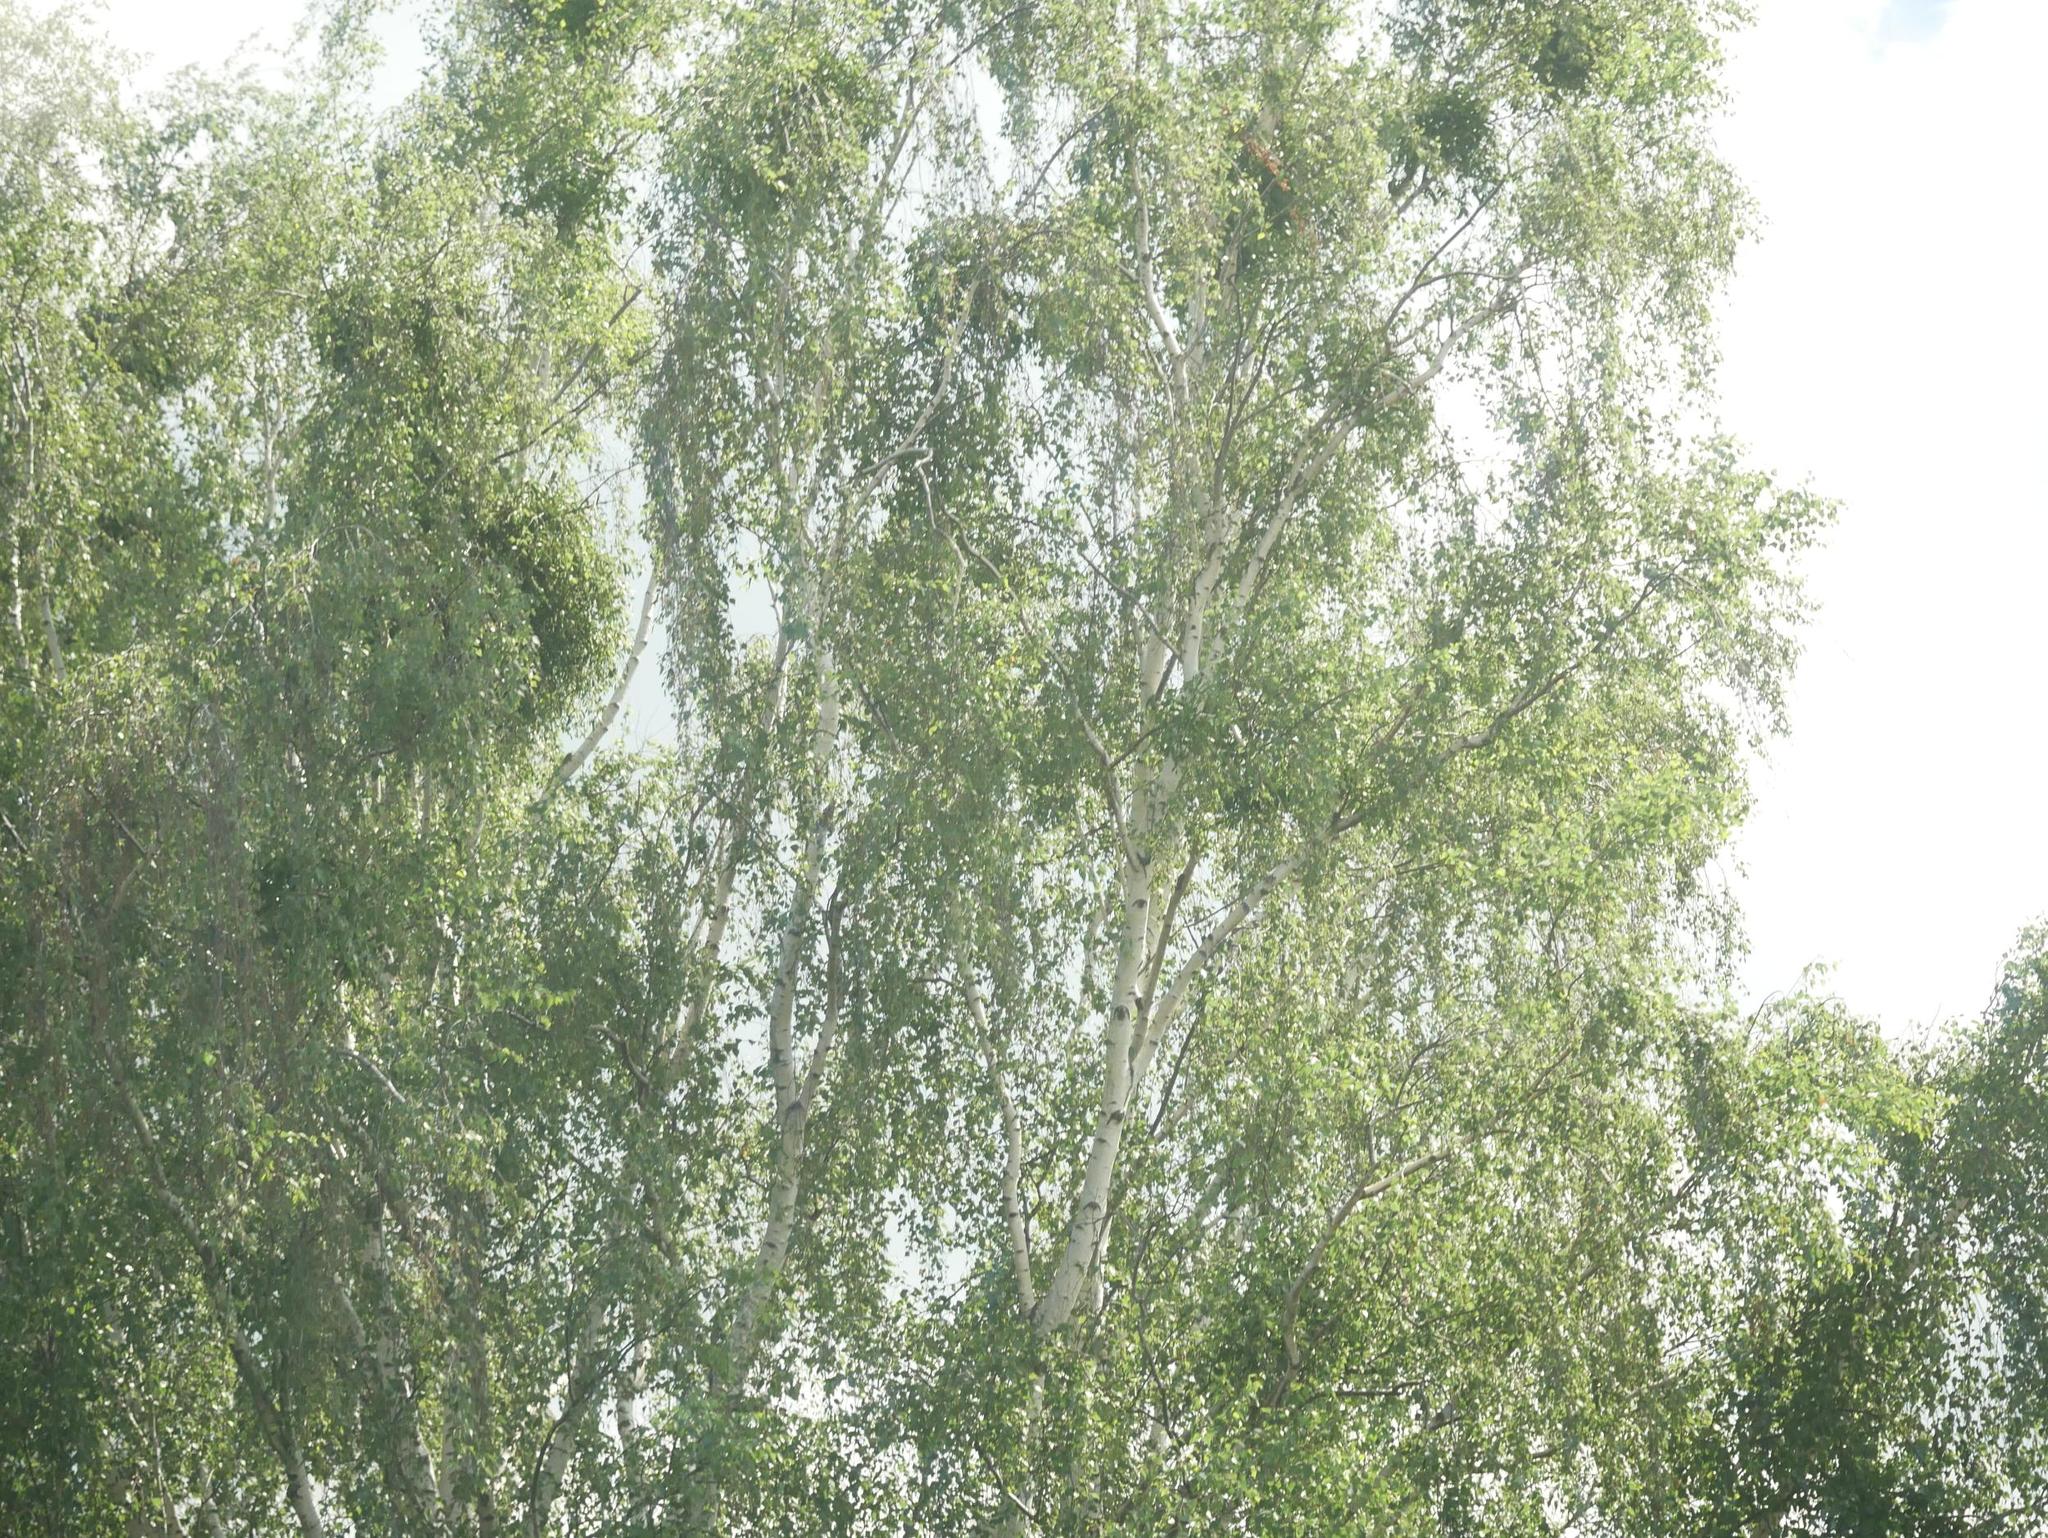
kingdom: Plantae
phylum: Tracheophyta
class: Magnoliopsida
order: Santalales
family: Viscaceae
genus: Viscum
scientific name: Viscum album
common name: Mistletoe
